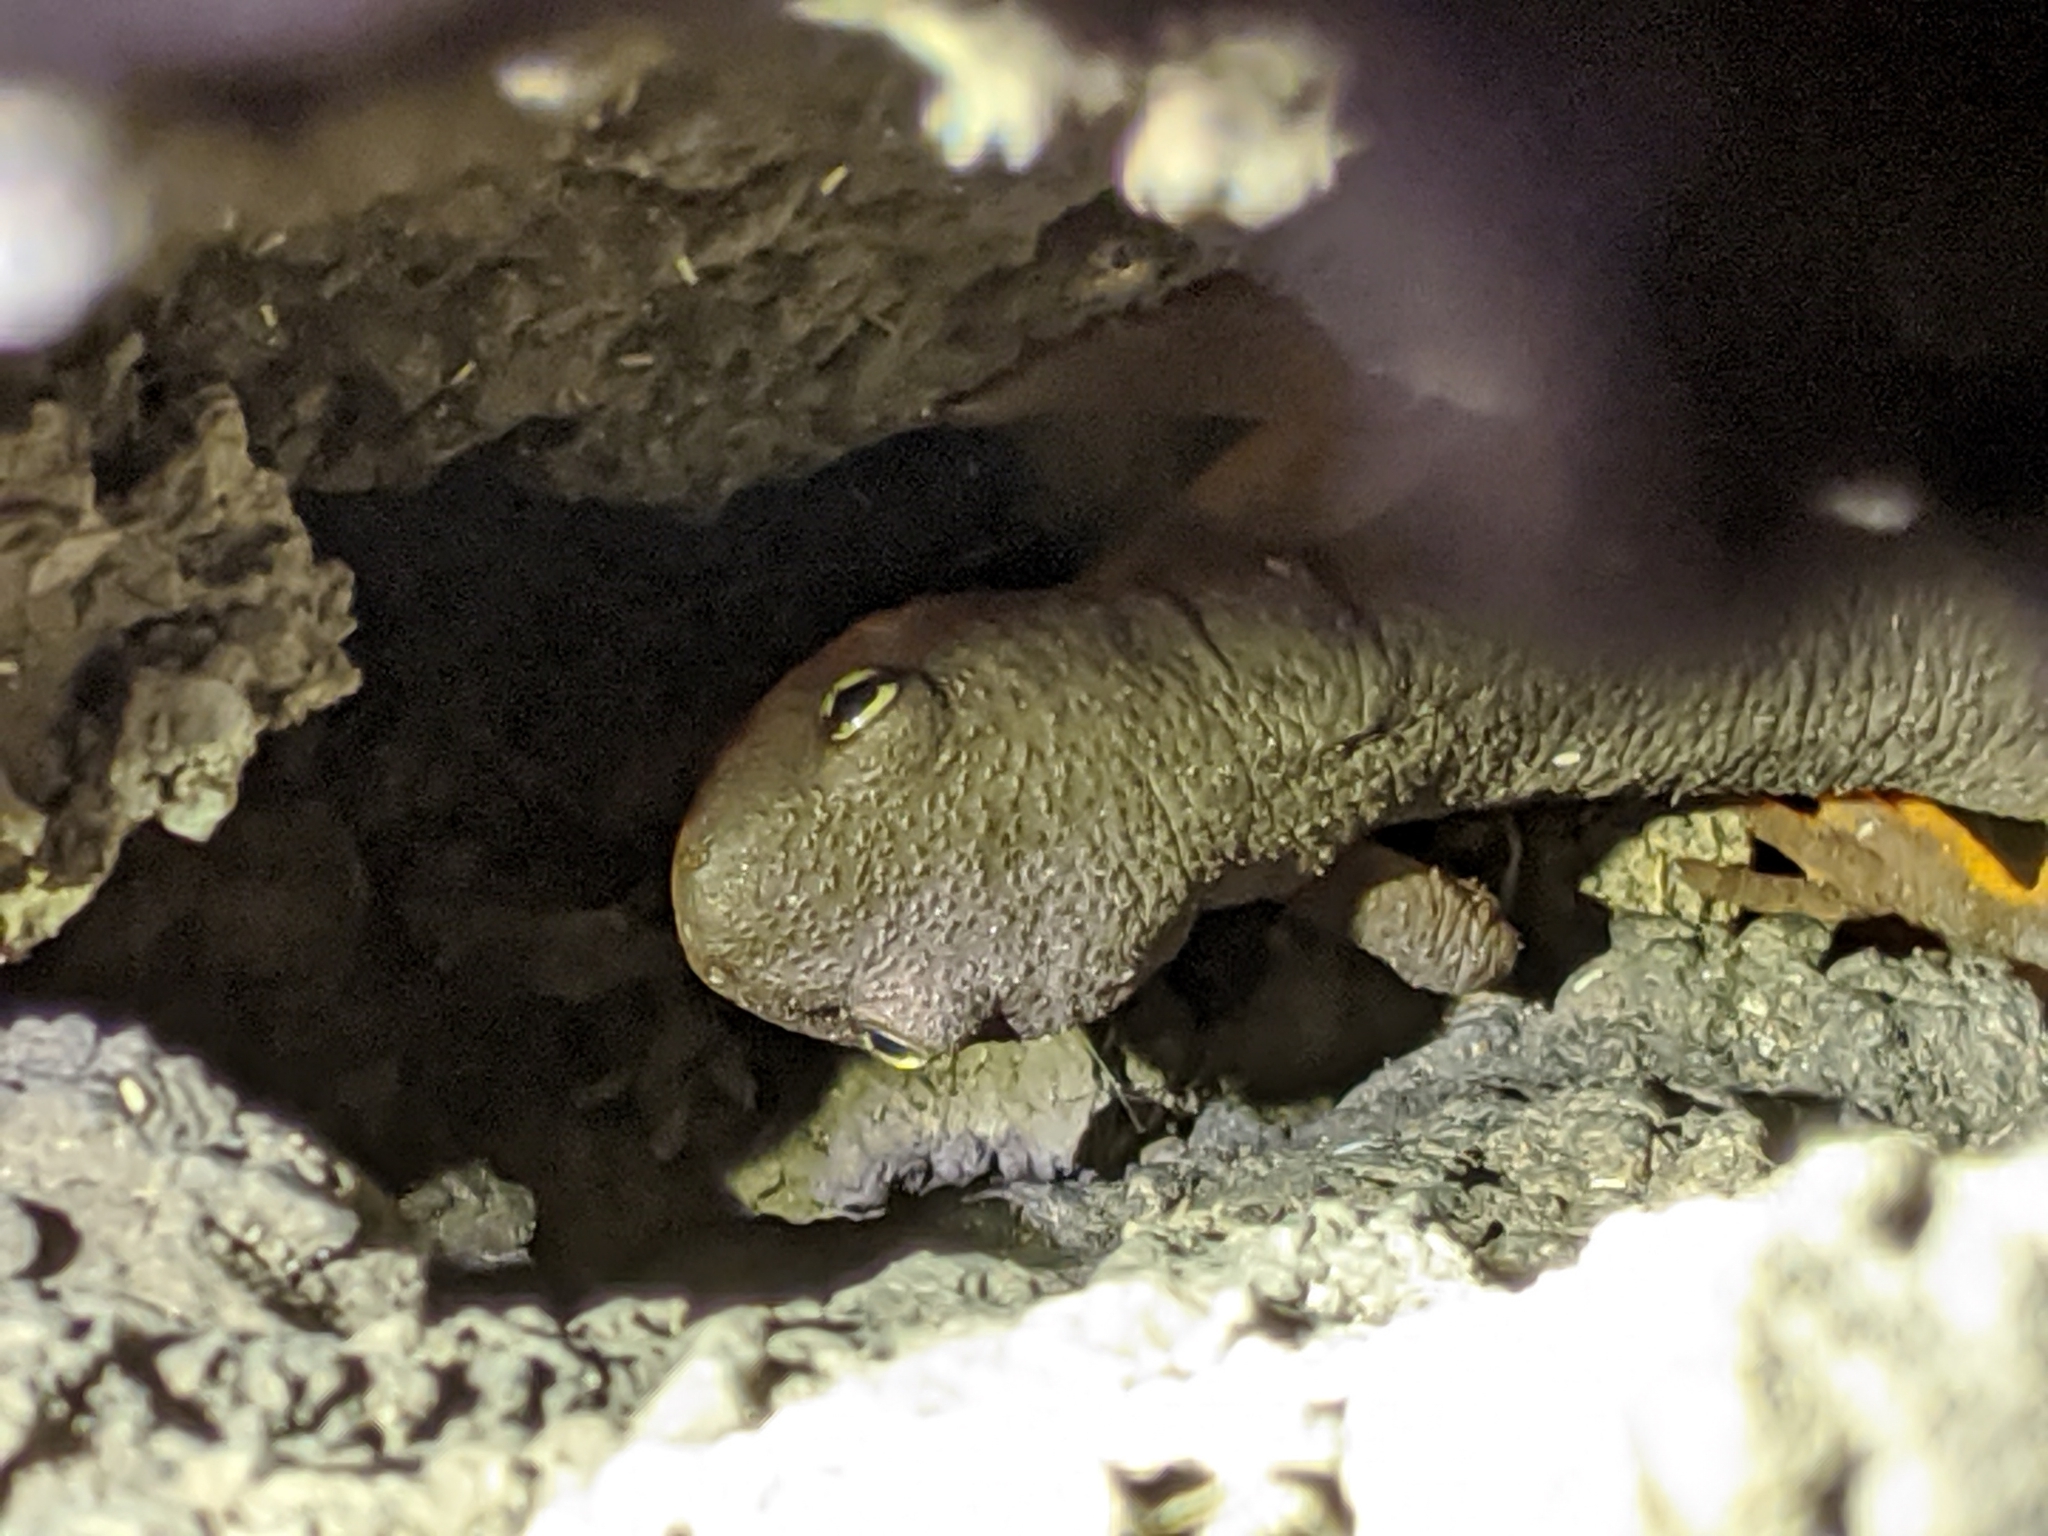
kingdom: Animalia
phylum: Chordata
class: Amphibia
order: Caudata
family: Salamandridae
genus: Taricha
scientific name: Taricha granulosa
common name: Roughskin newt
